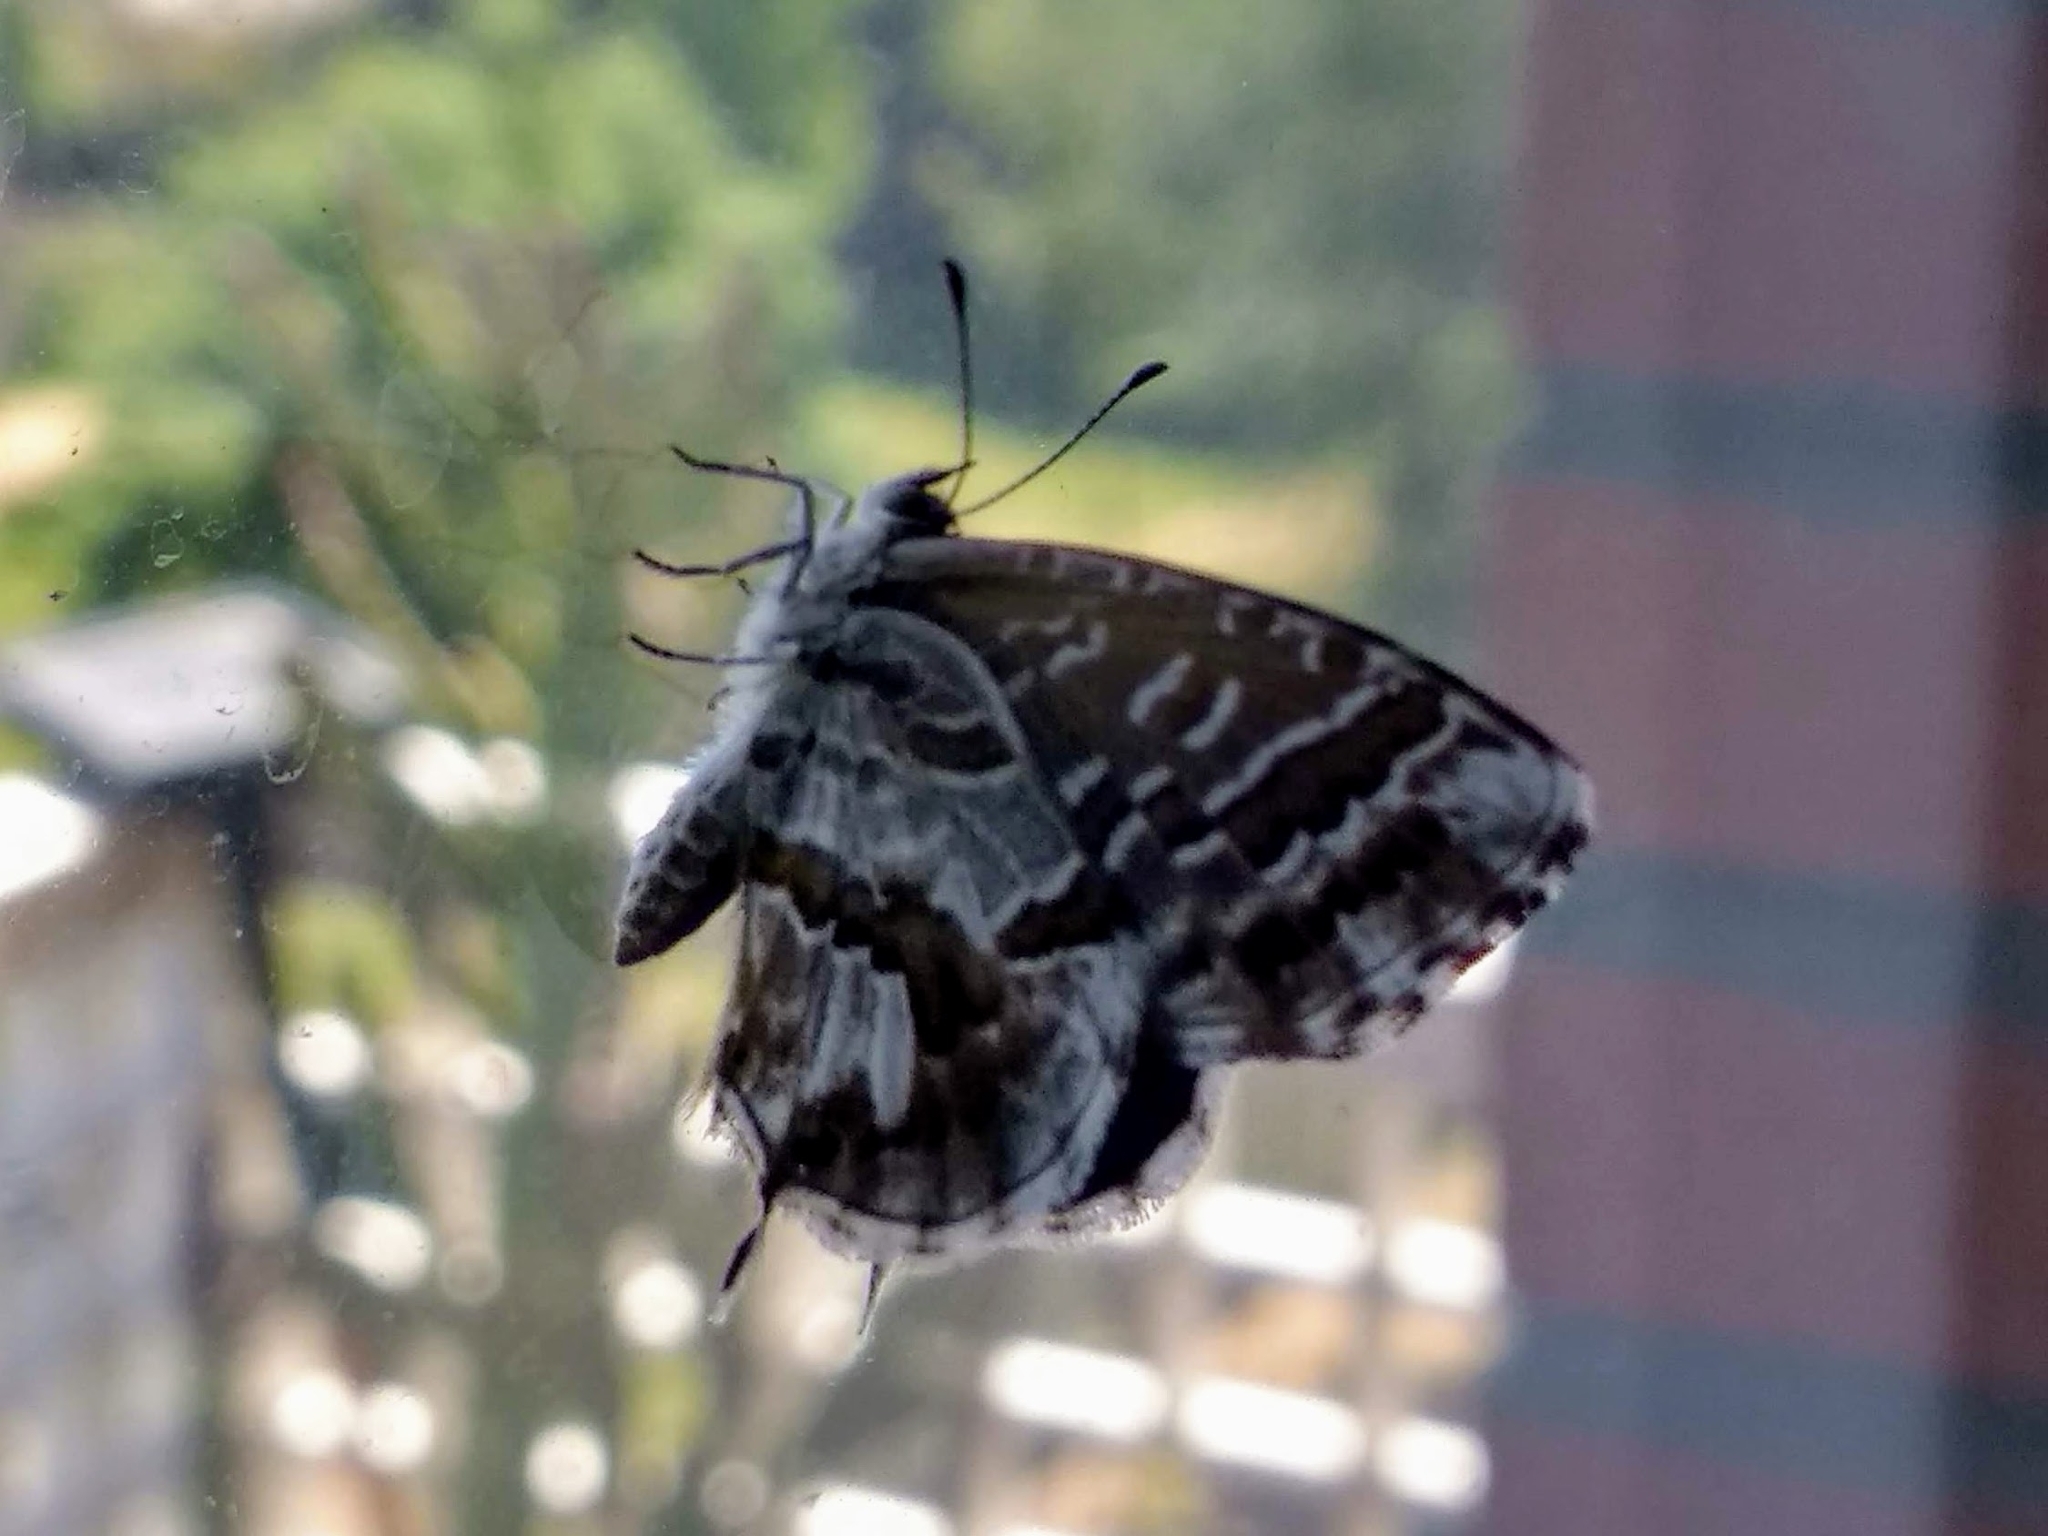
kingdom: Animalia
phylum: Arthropoda
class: Insecta
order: Lepidoptera
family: Lycaenidae
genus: Cacyreus
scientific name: Cacyreus marshalli
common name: Geranium bronze
